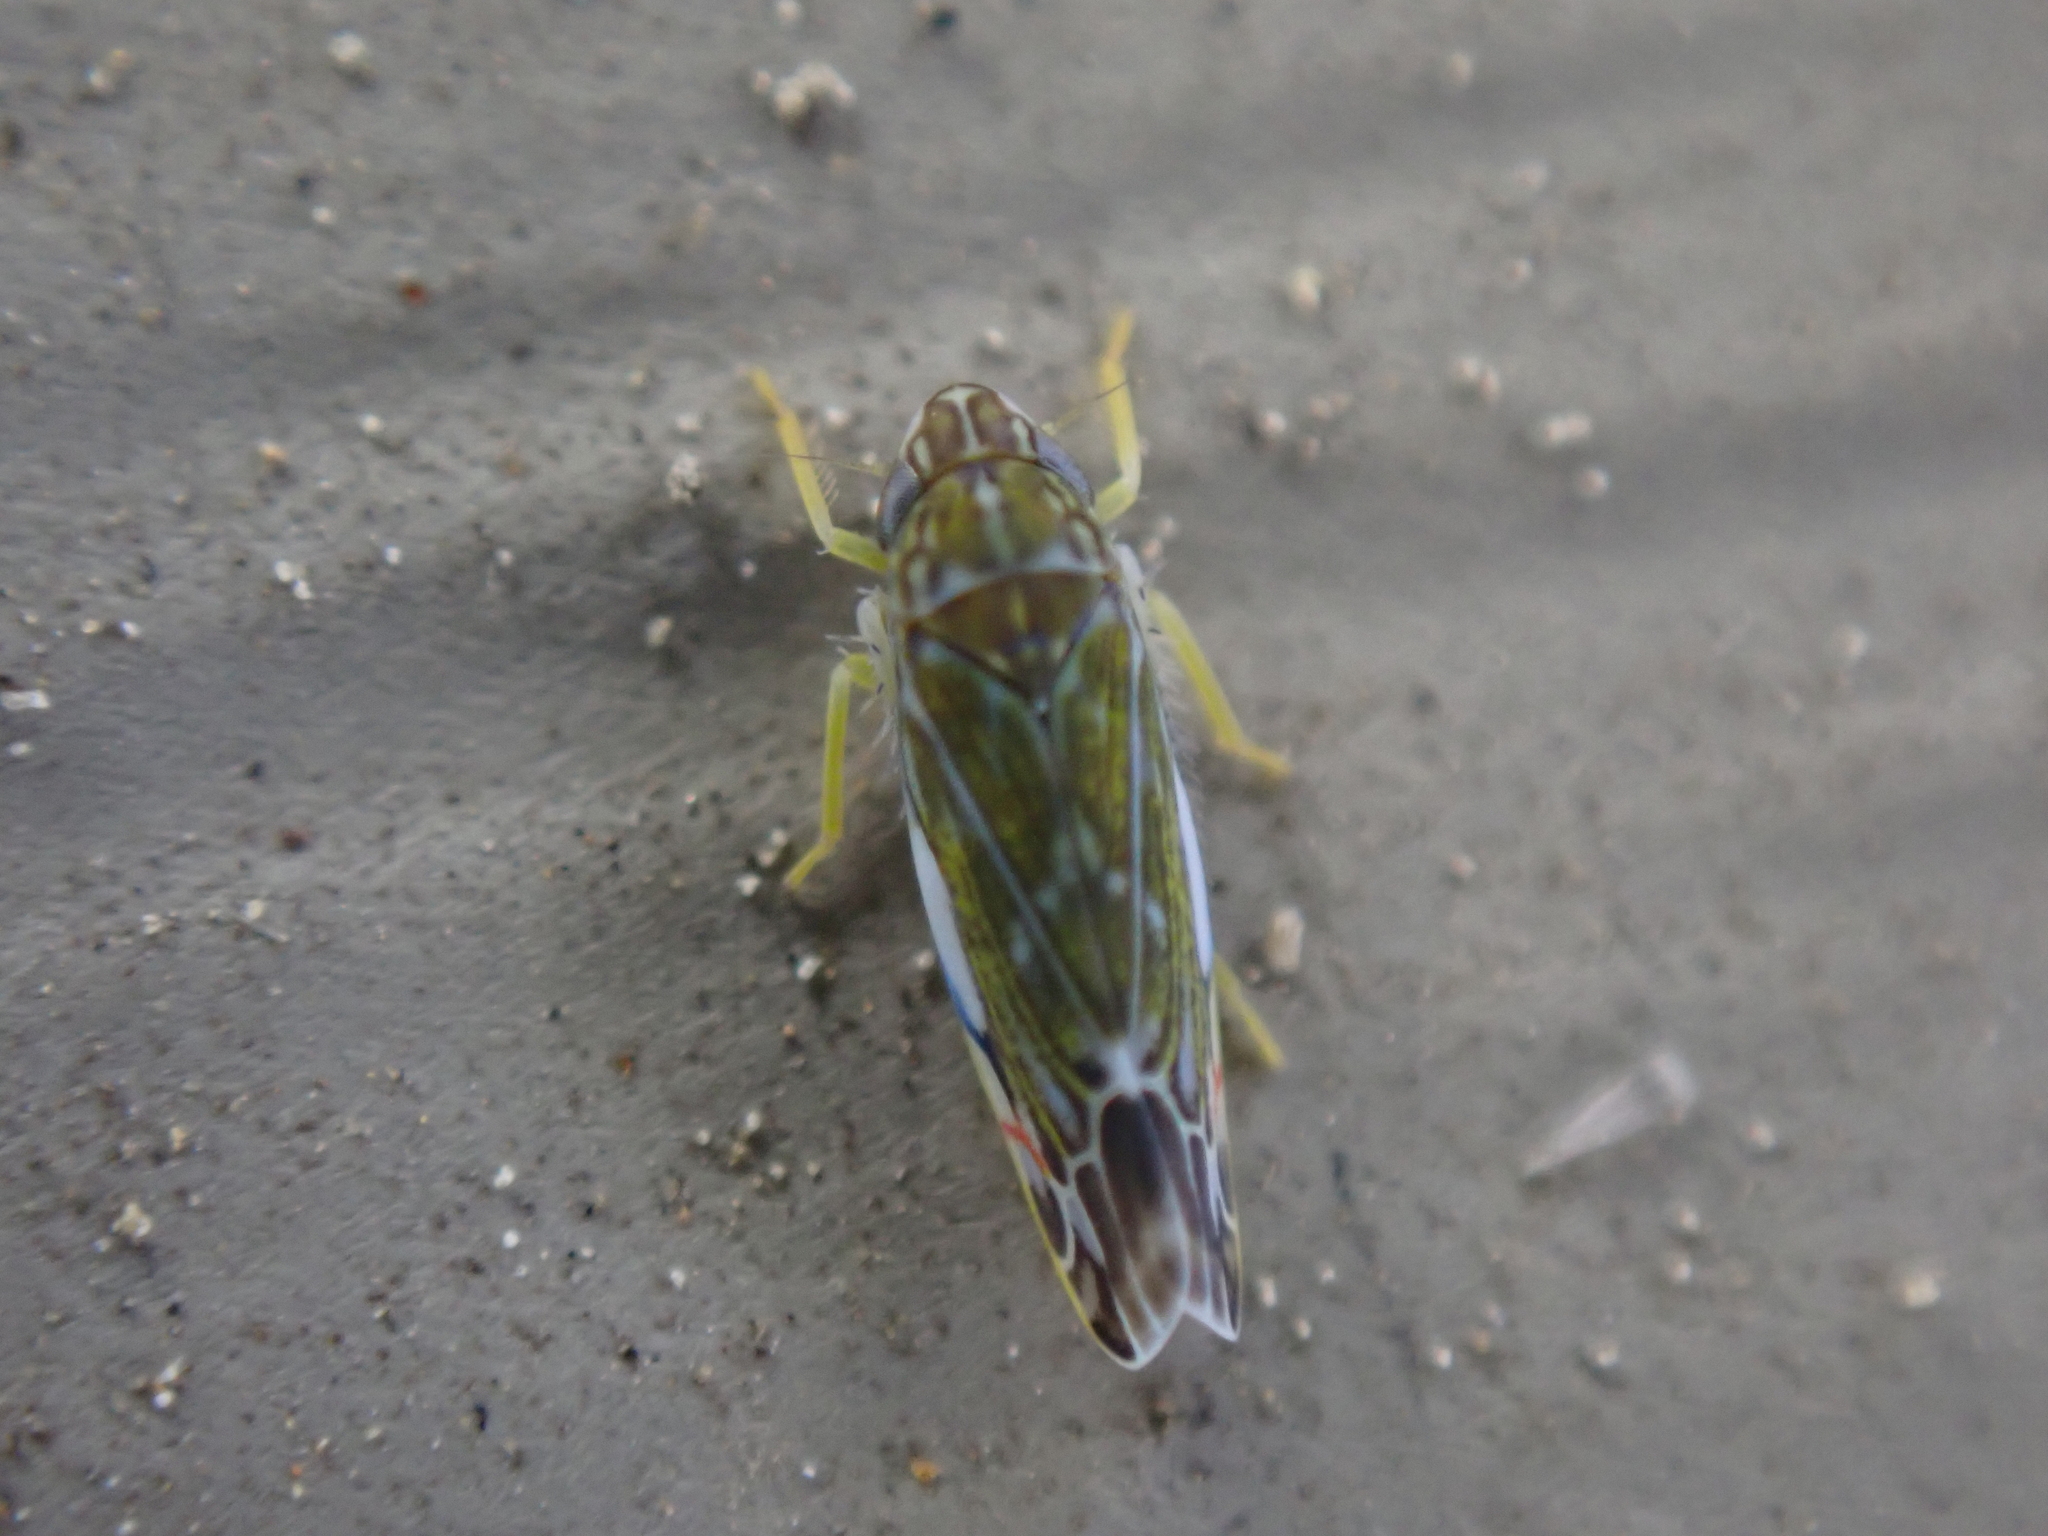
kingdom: Animalia
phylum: Arthropoda
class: Insecta
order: Hemiptera
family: Cicadellidae
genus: Erasmoneura
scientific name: Erasmoneura vulnerata
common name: The wounded leafhopper
